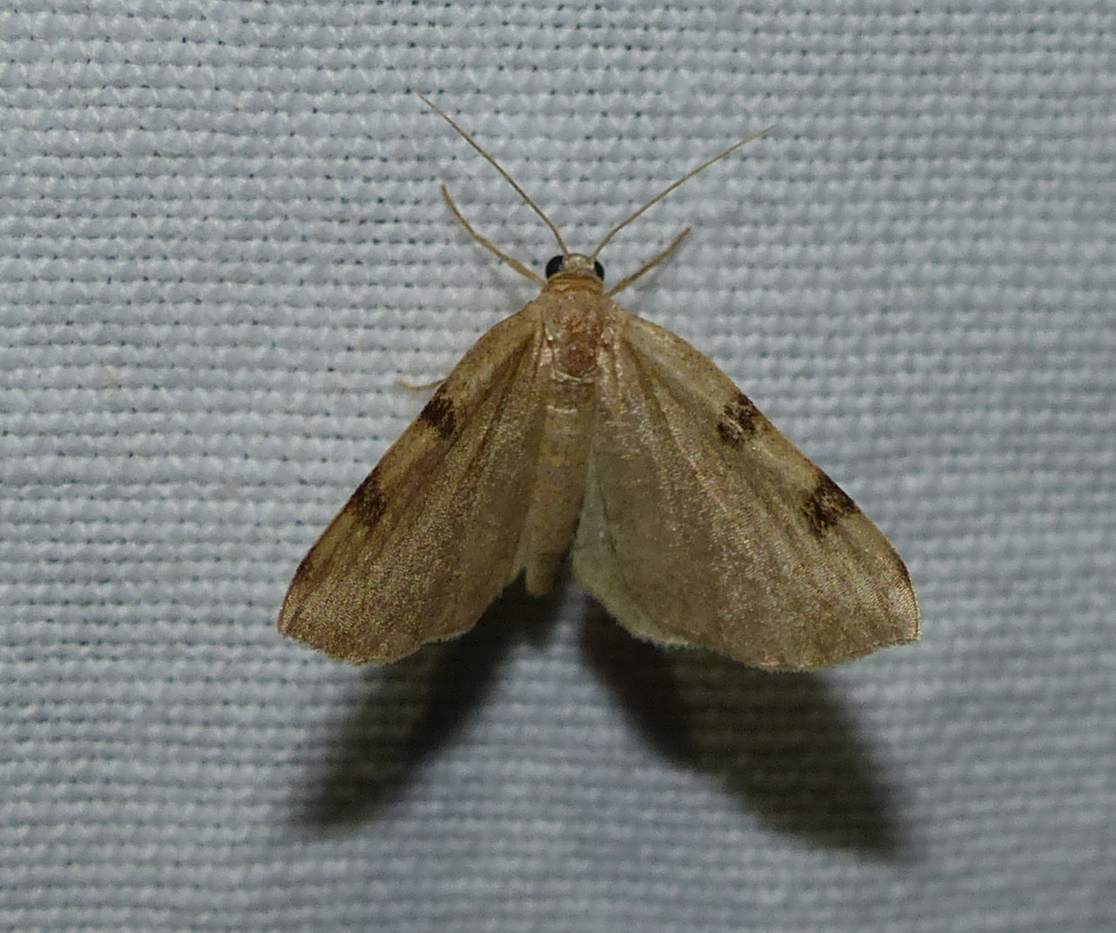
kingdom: Animalia
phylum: Arthropoda
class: Insecta
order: Lepidoptera
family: Geometridae
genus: Heterophleps
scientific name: Heterophleps triguttaria
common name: Three-spotted fillip
